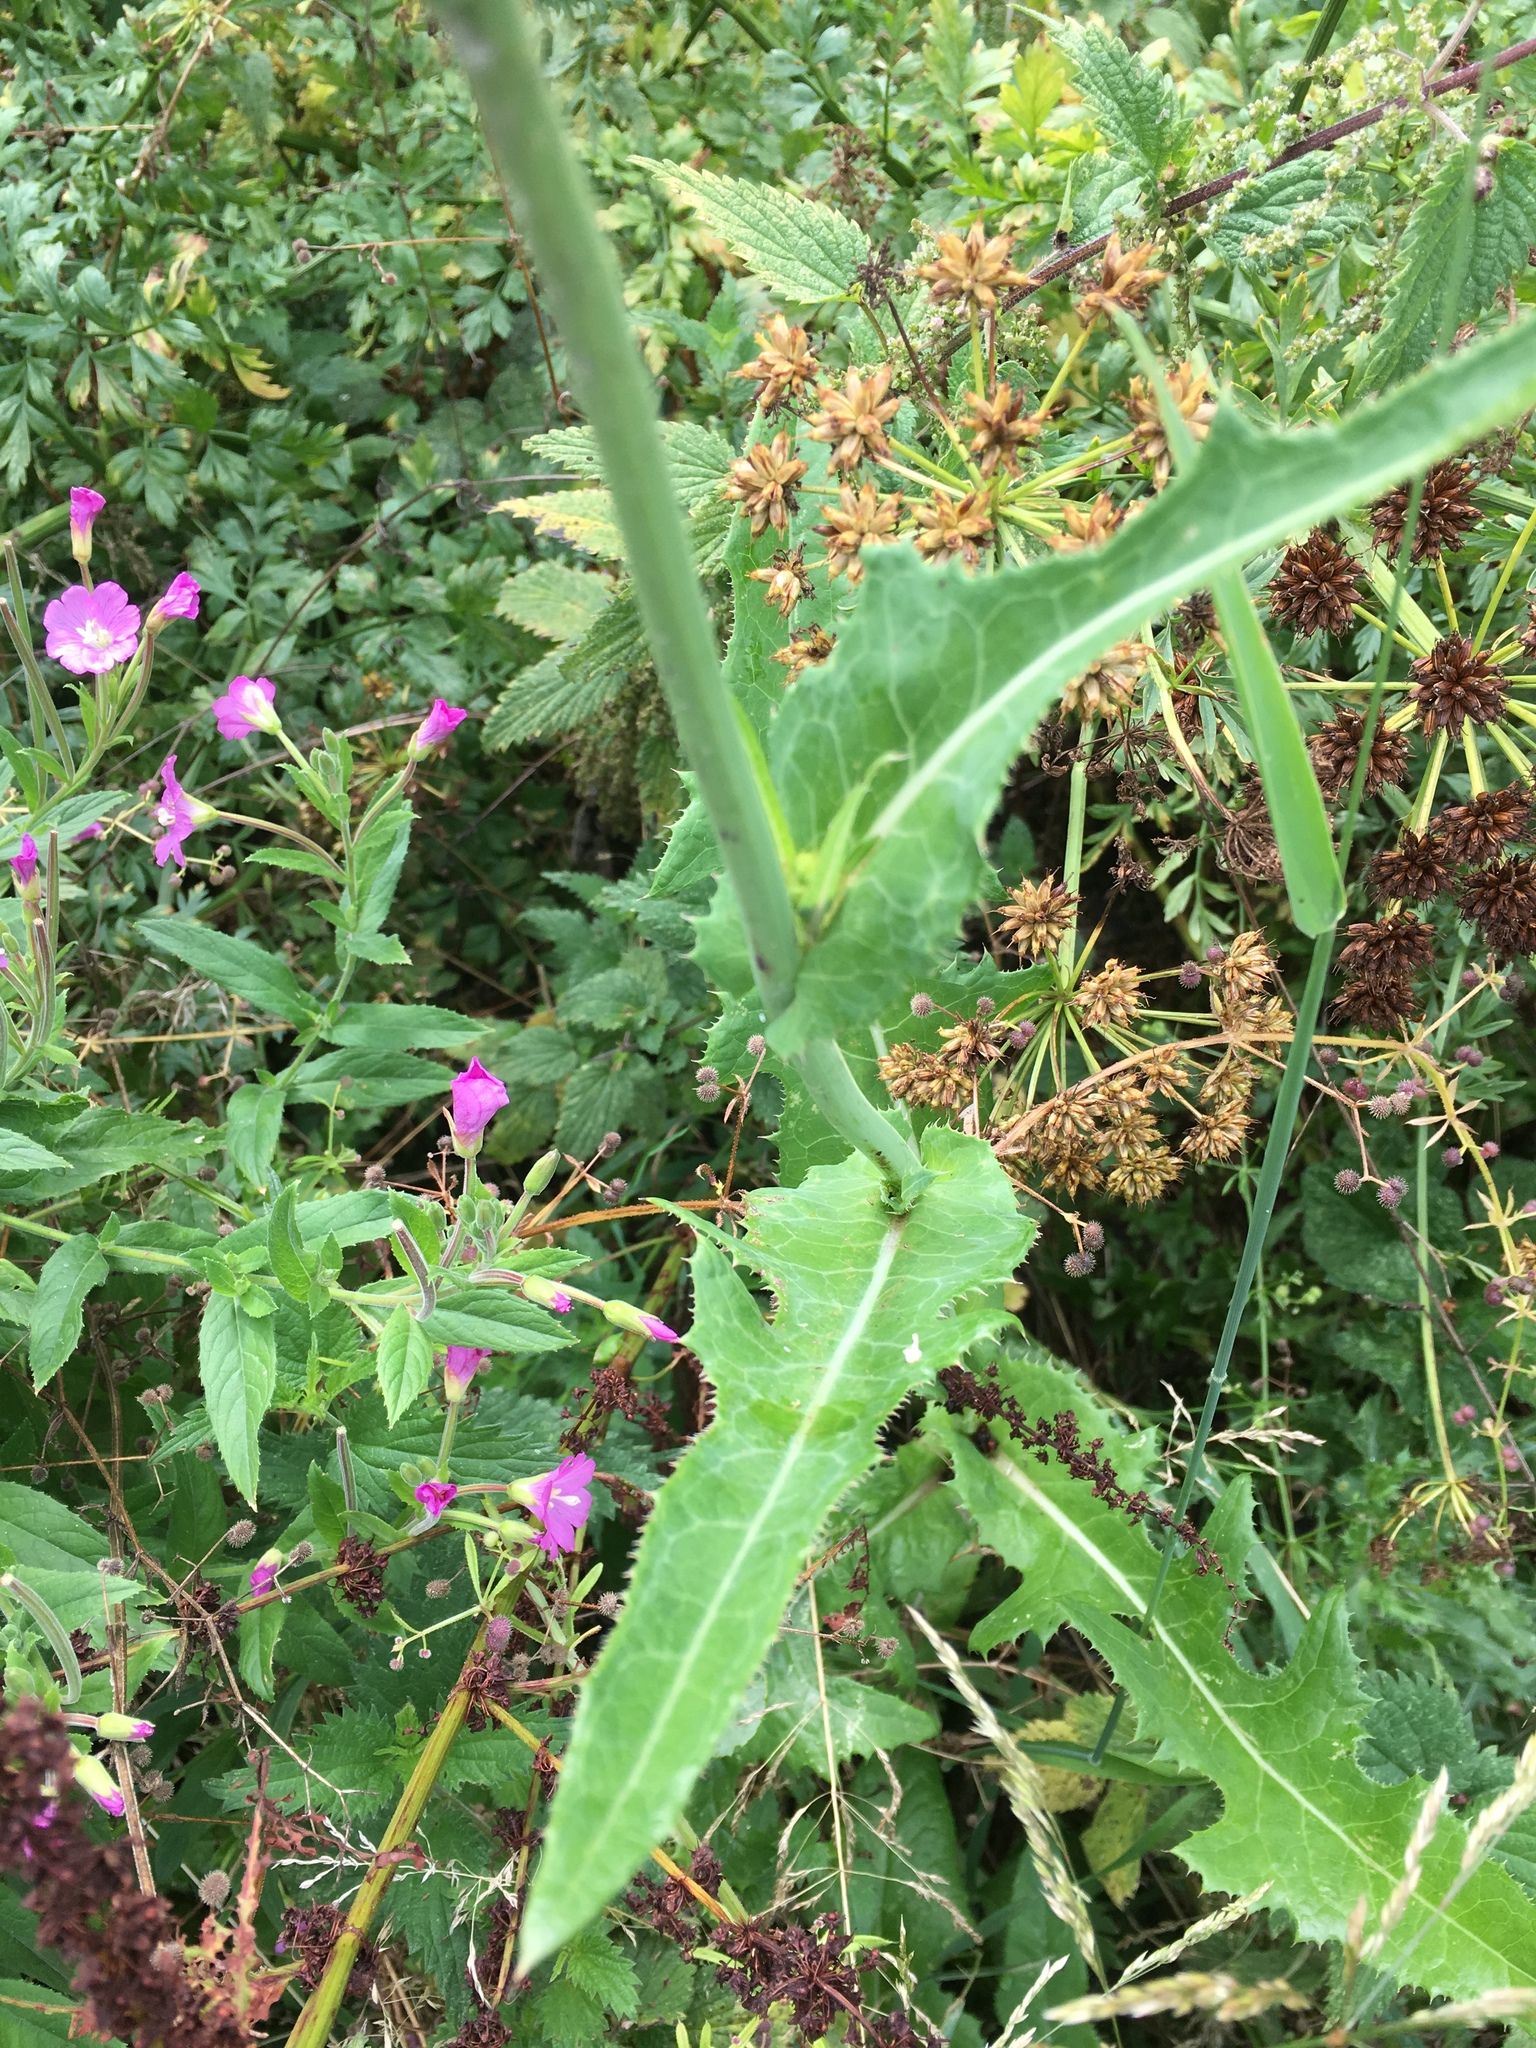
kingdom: Plantae
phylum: Tracheophyta
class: Magnoliopsida
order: Asterales
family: Asteraceae
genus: Sonchus
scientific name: Sonchus arvensis
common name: Perennial sow-thistle
